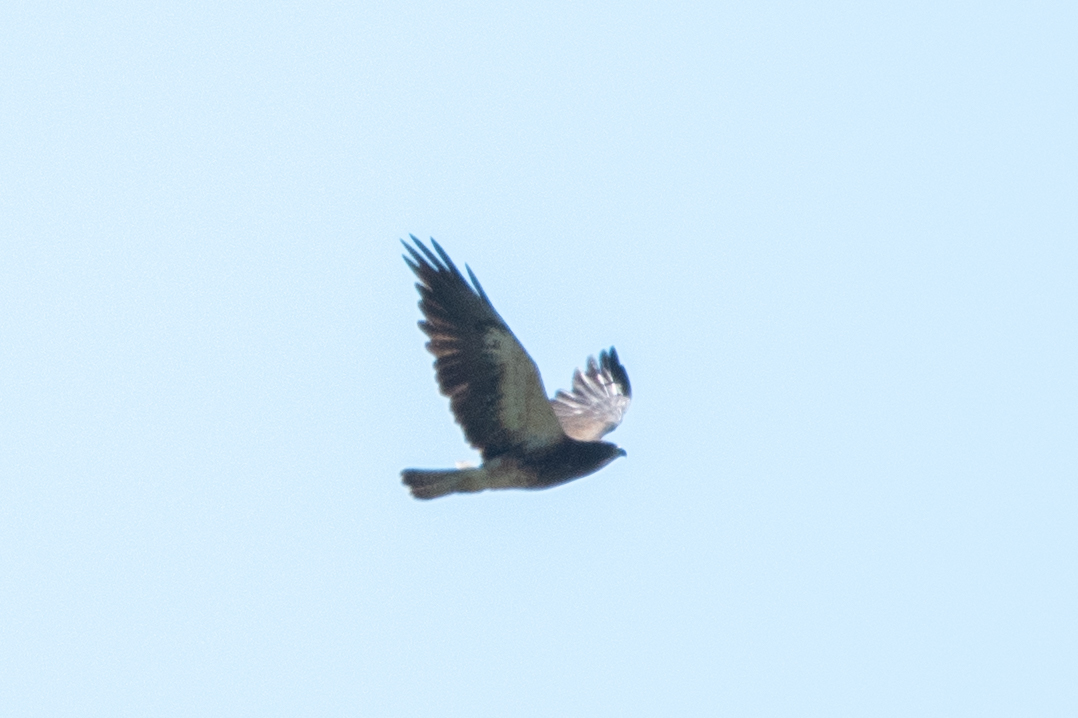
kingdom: Animalia
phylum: Chordata
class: Aves
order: Accipitriformes
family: Accipitridae
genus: Buteo
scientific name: Buteo swainsoni
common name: Swainson's hawk
